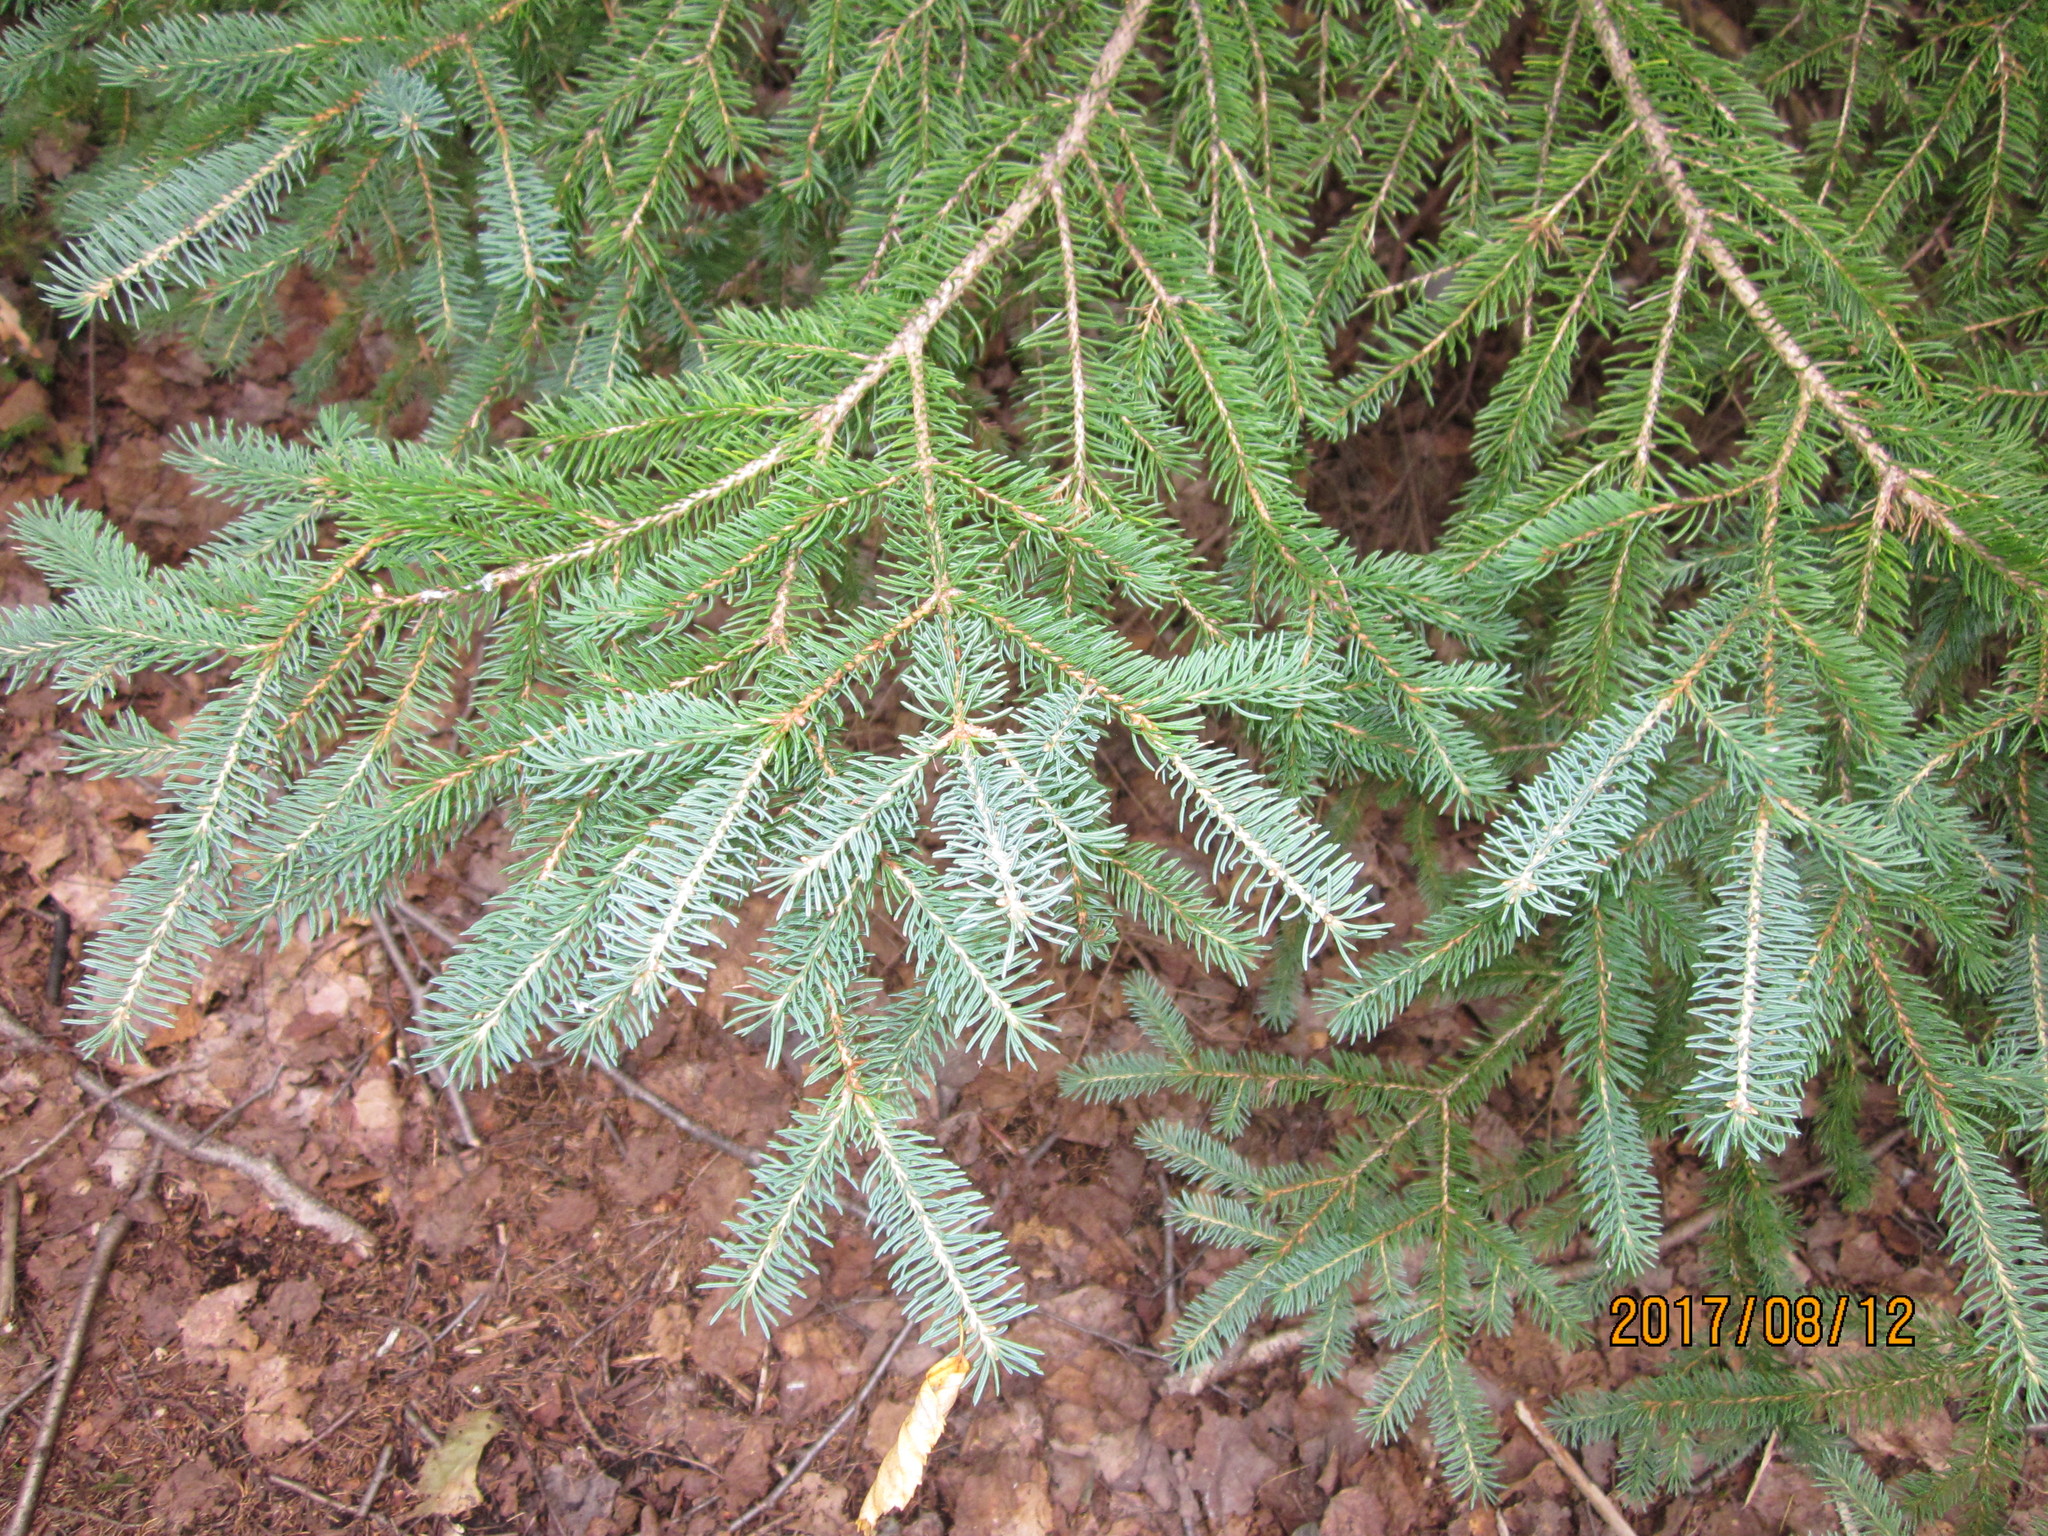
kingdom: Plantae
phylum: Tracheophyta
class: Pinopsida
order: Pinales
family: Pinaceae
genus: Picea
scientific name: Picea glauca
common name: White spruce
